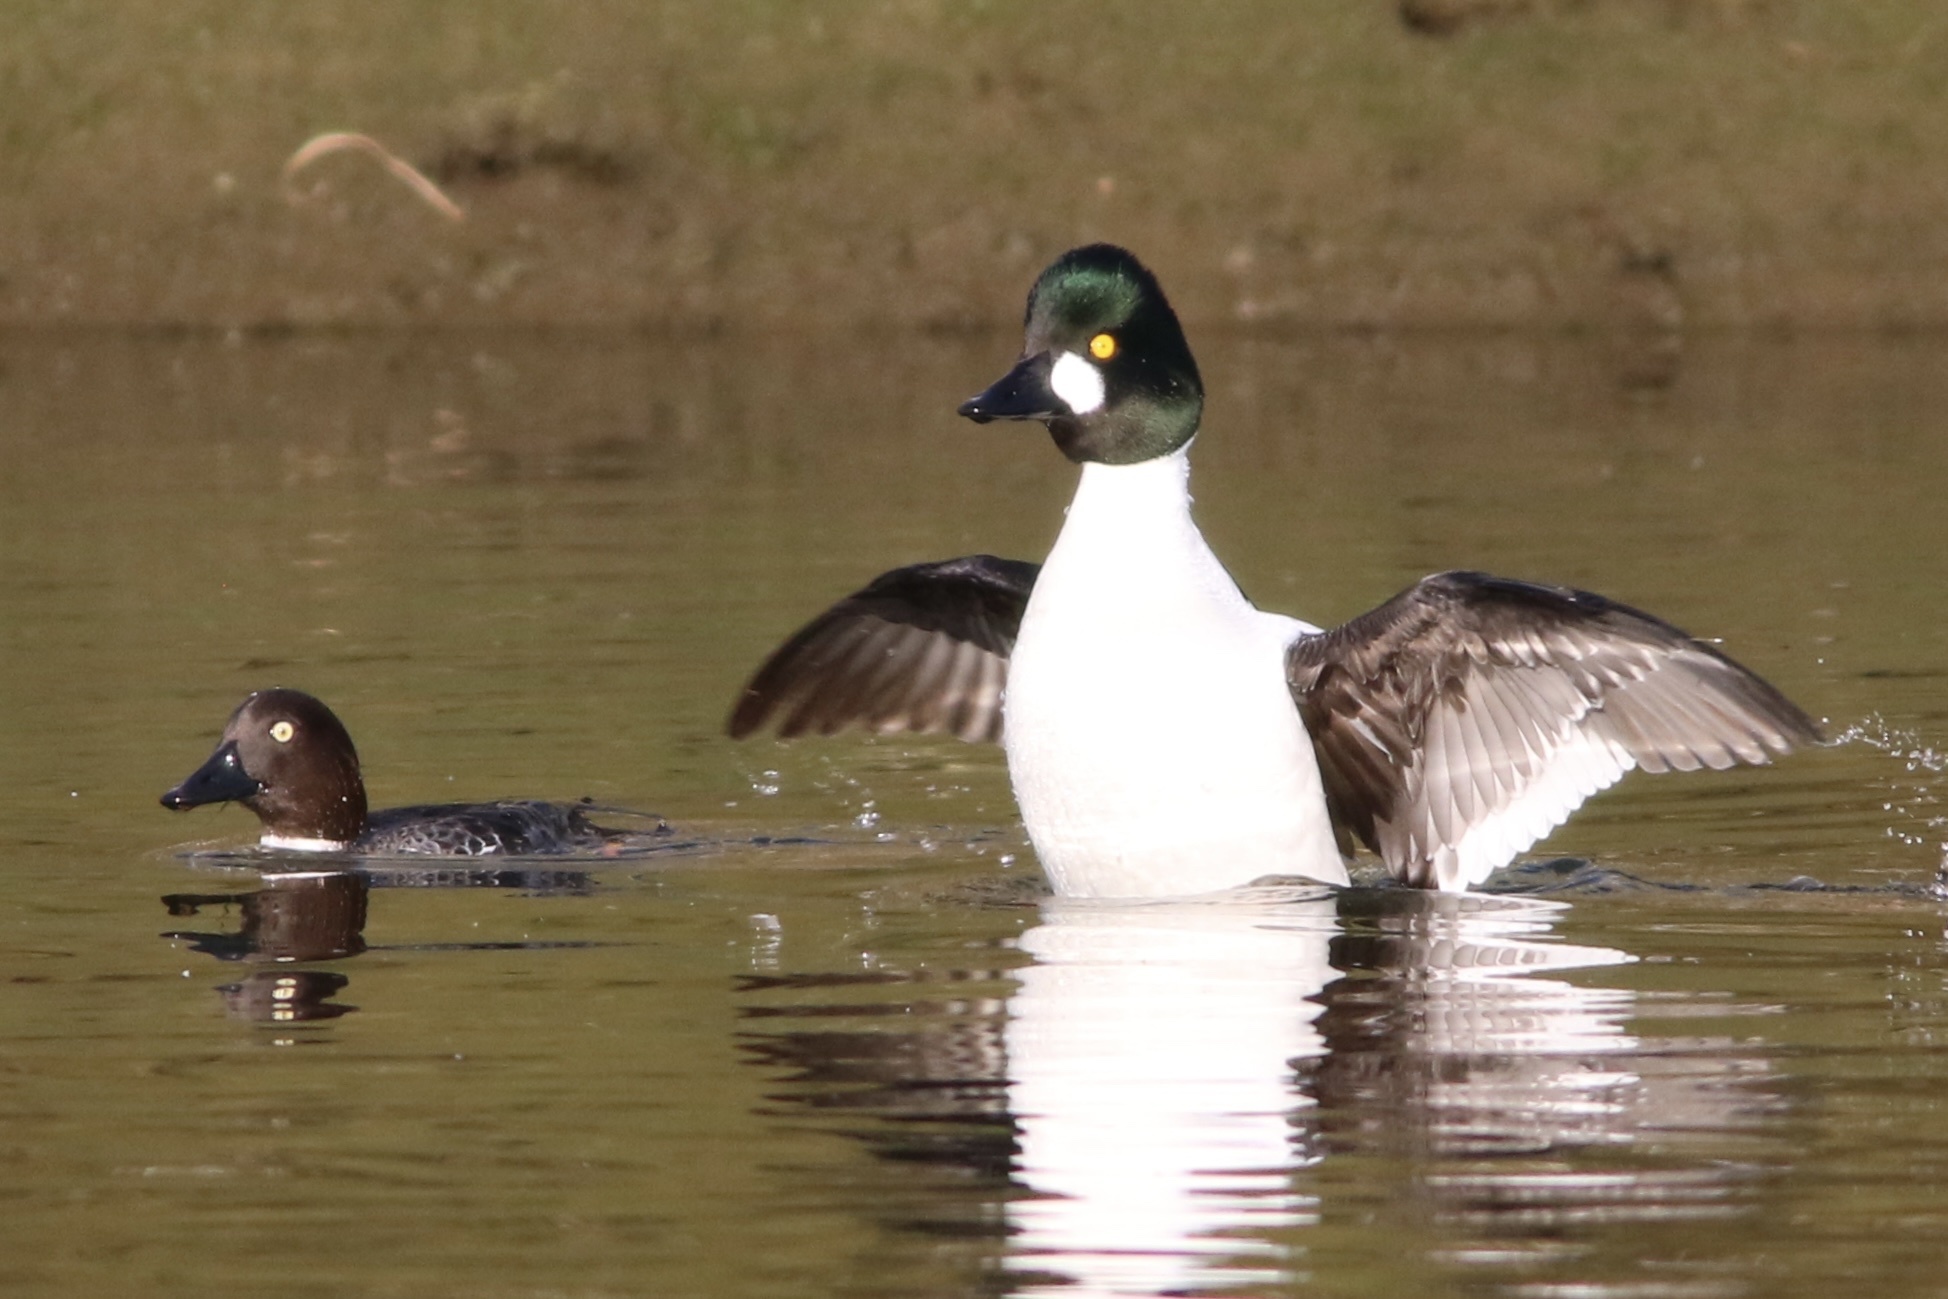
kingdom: Animalia
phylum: Chordata
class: Aves
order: Anseriformes
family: Anatidae
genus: Bucephala
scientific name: Bucephala clangula
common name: Common goldeneye
